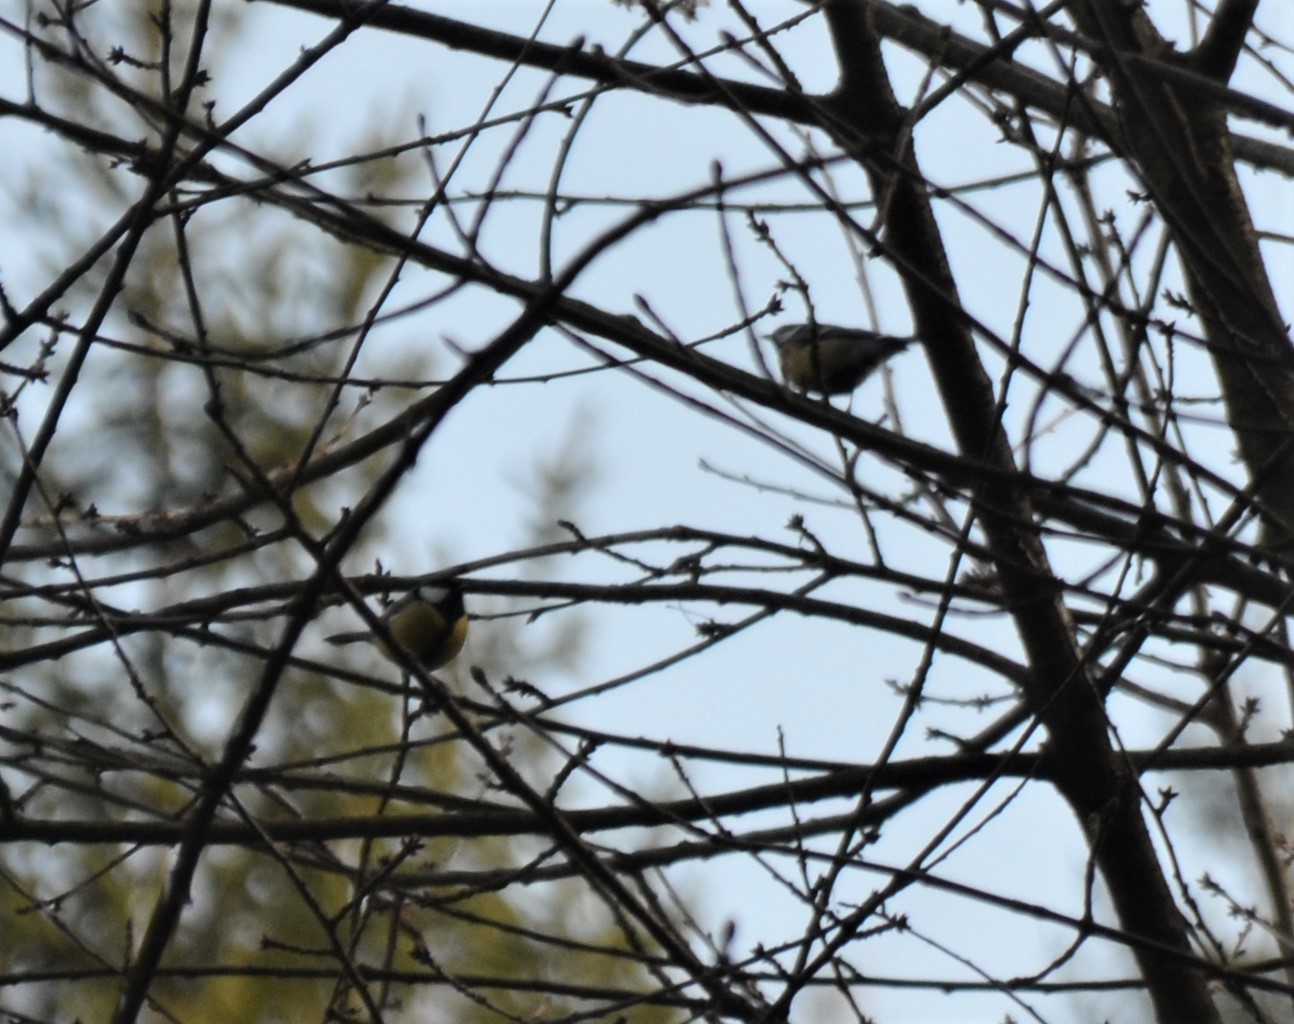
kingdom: Animalia
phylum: Chordata
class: Aves
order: Passeriformes
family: Paridae
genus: Parus
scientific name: Parus major
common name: Great tit
